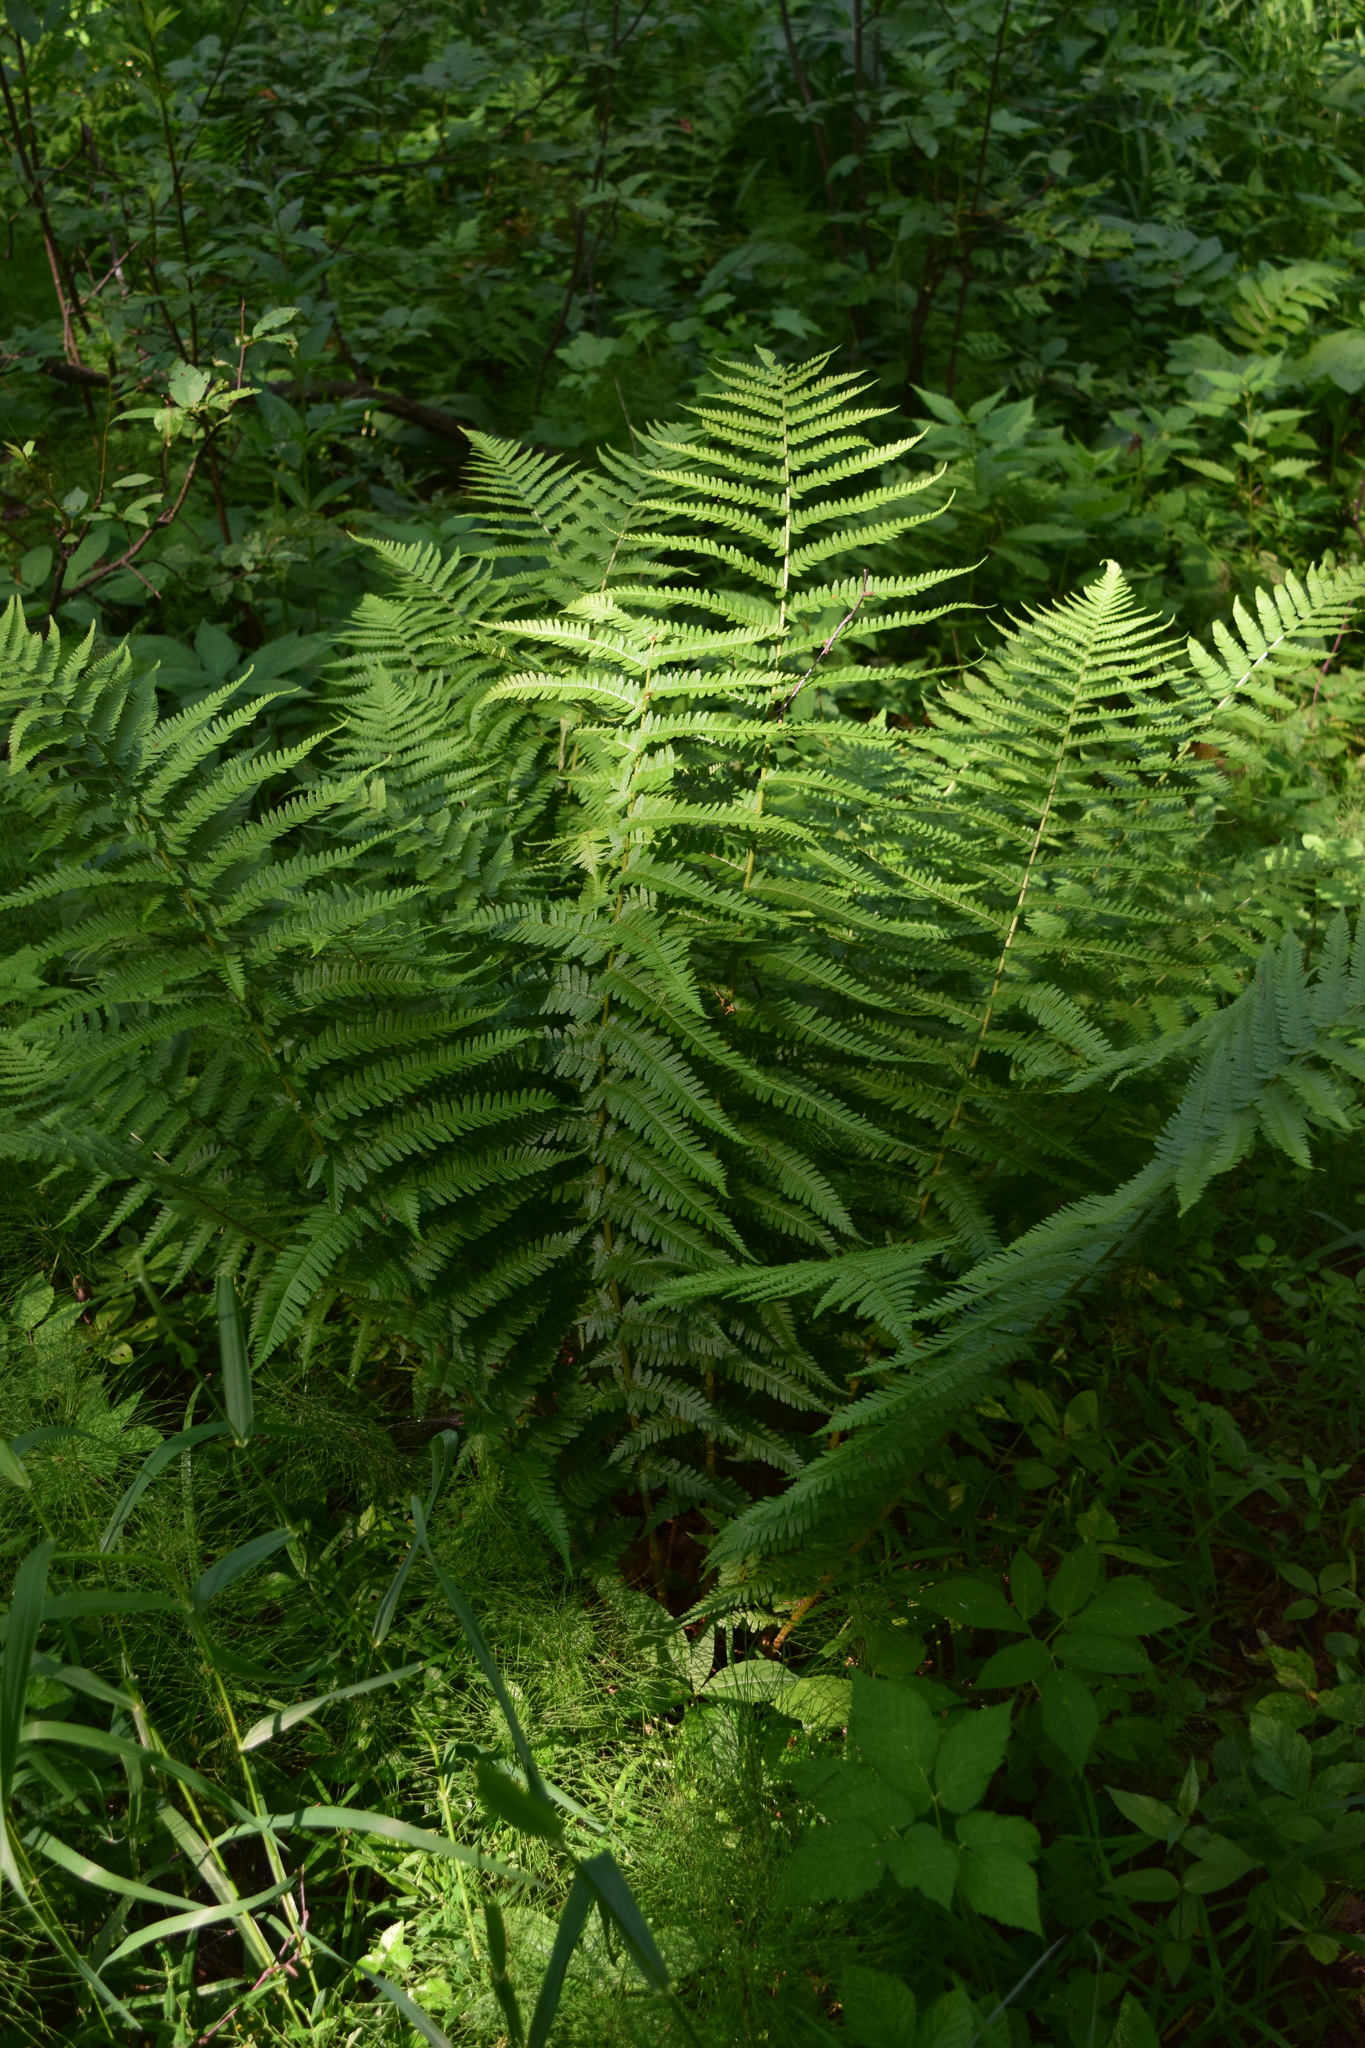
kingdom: Plantae
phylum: Tracheophyta
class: Polypodiopsida
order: Polypodiales
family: Dryopteridaceae
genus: Dryopteris
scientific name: Dryopteris filix-mas
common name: Male fern
